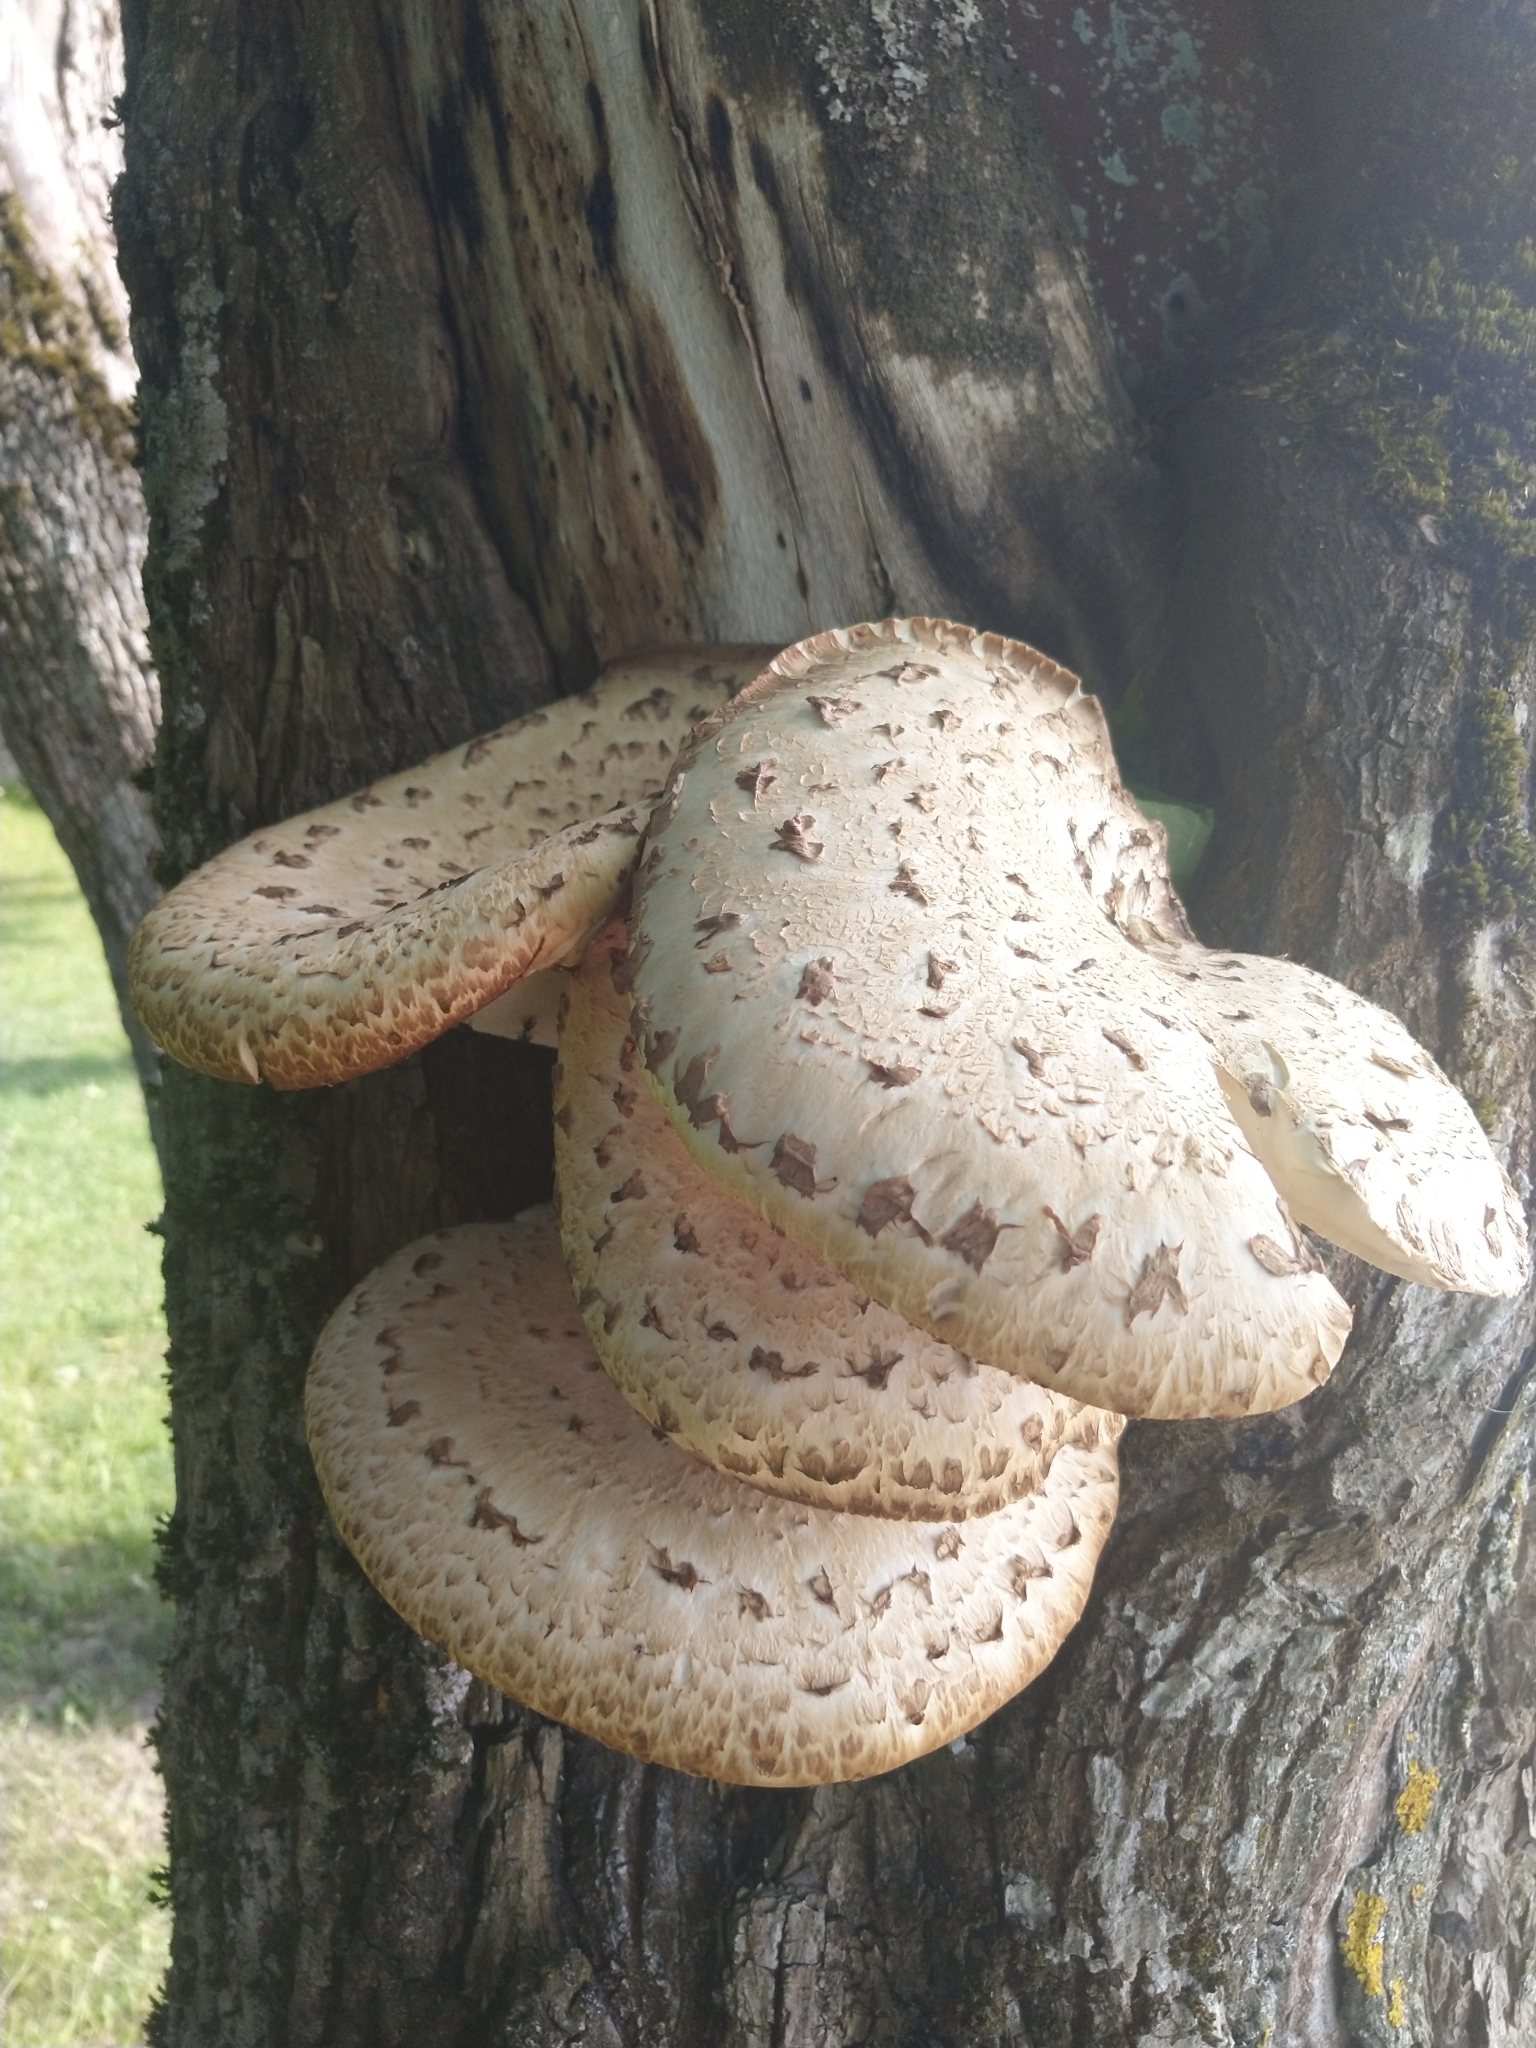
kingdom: Fungi
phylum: Basidiomycota
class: Agaricomycetes
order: Polyporales
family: Polyporaceae
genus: Cerioporus
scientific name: Cerioporus squamosus
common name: Dryad's saddle
